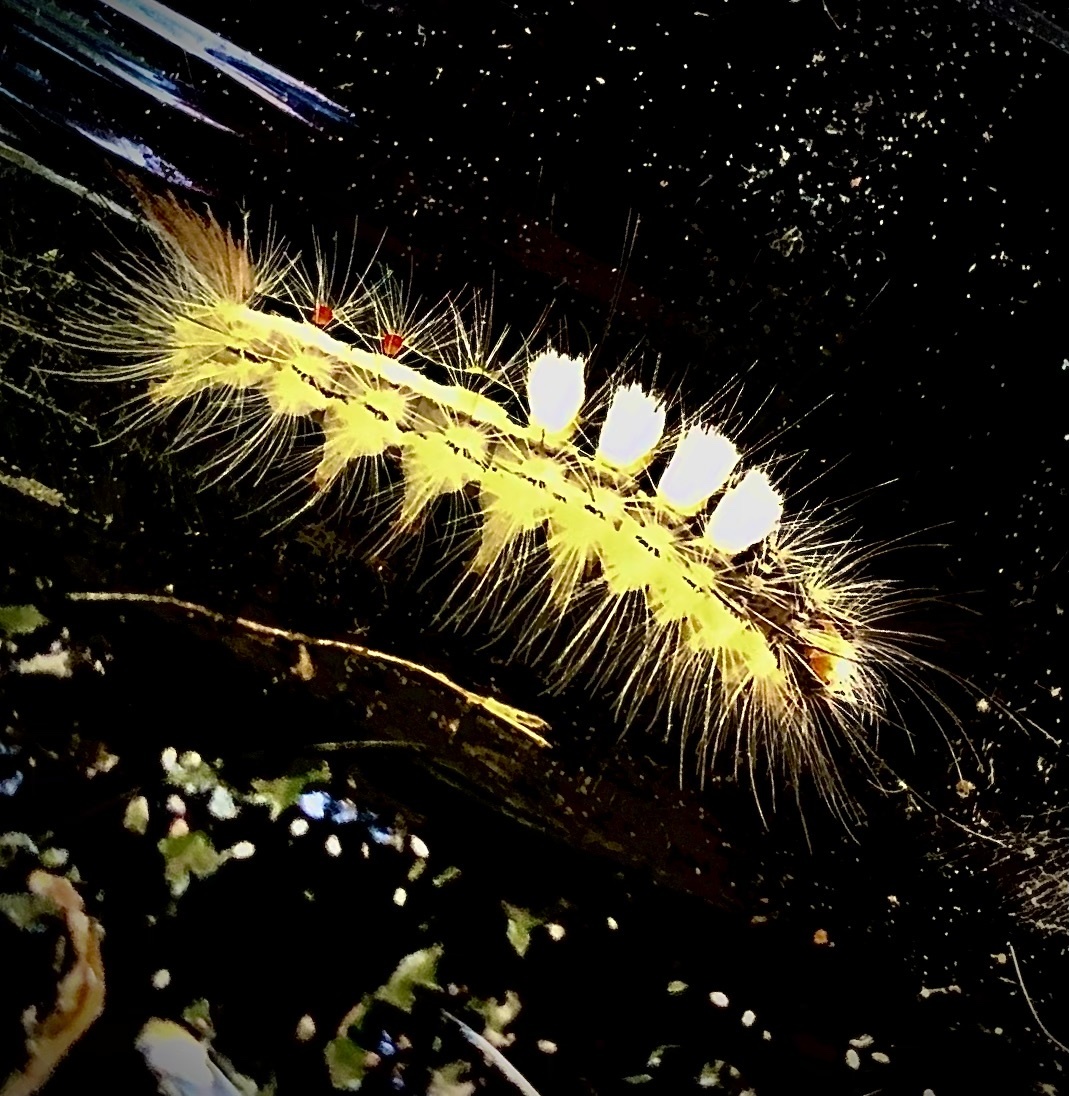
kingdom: Animalia
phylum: Arthropoda
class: Insecta
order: Lepidoptera
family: Erebidae
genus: Orgyia
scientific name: Orgyia leucostigma
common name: White-marked tussock moth
